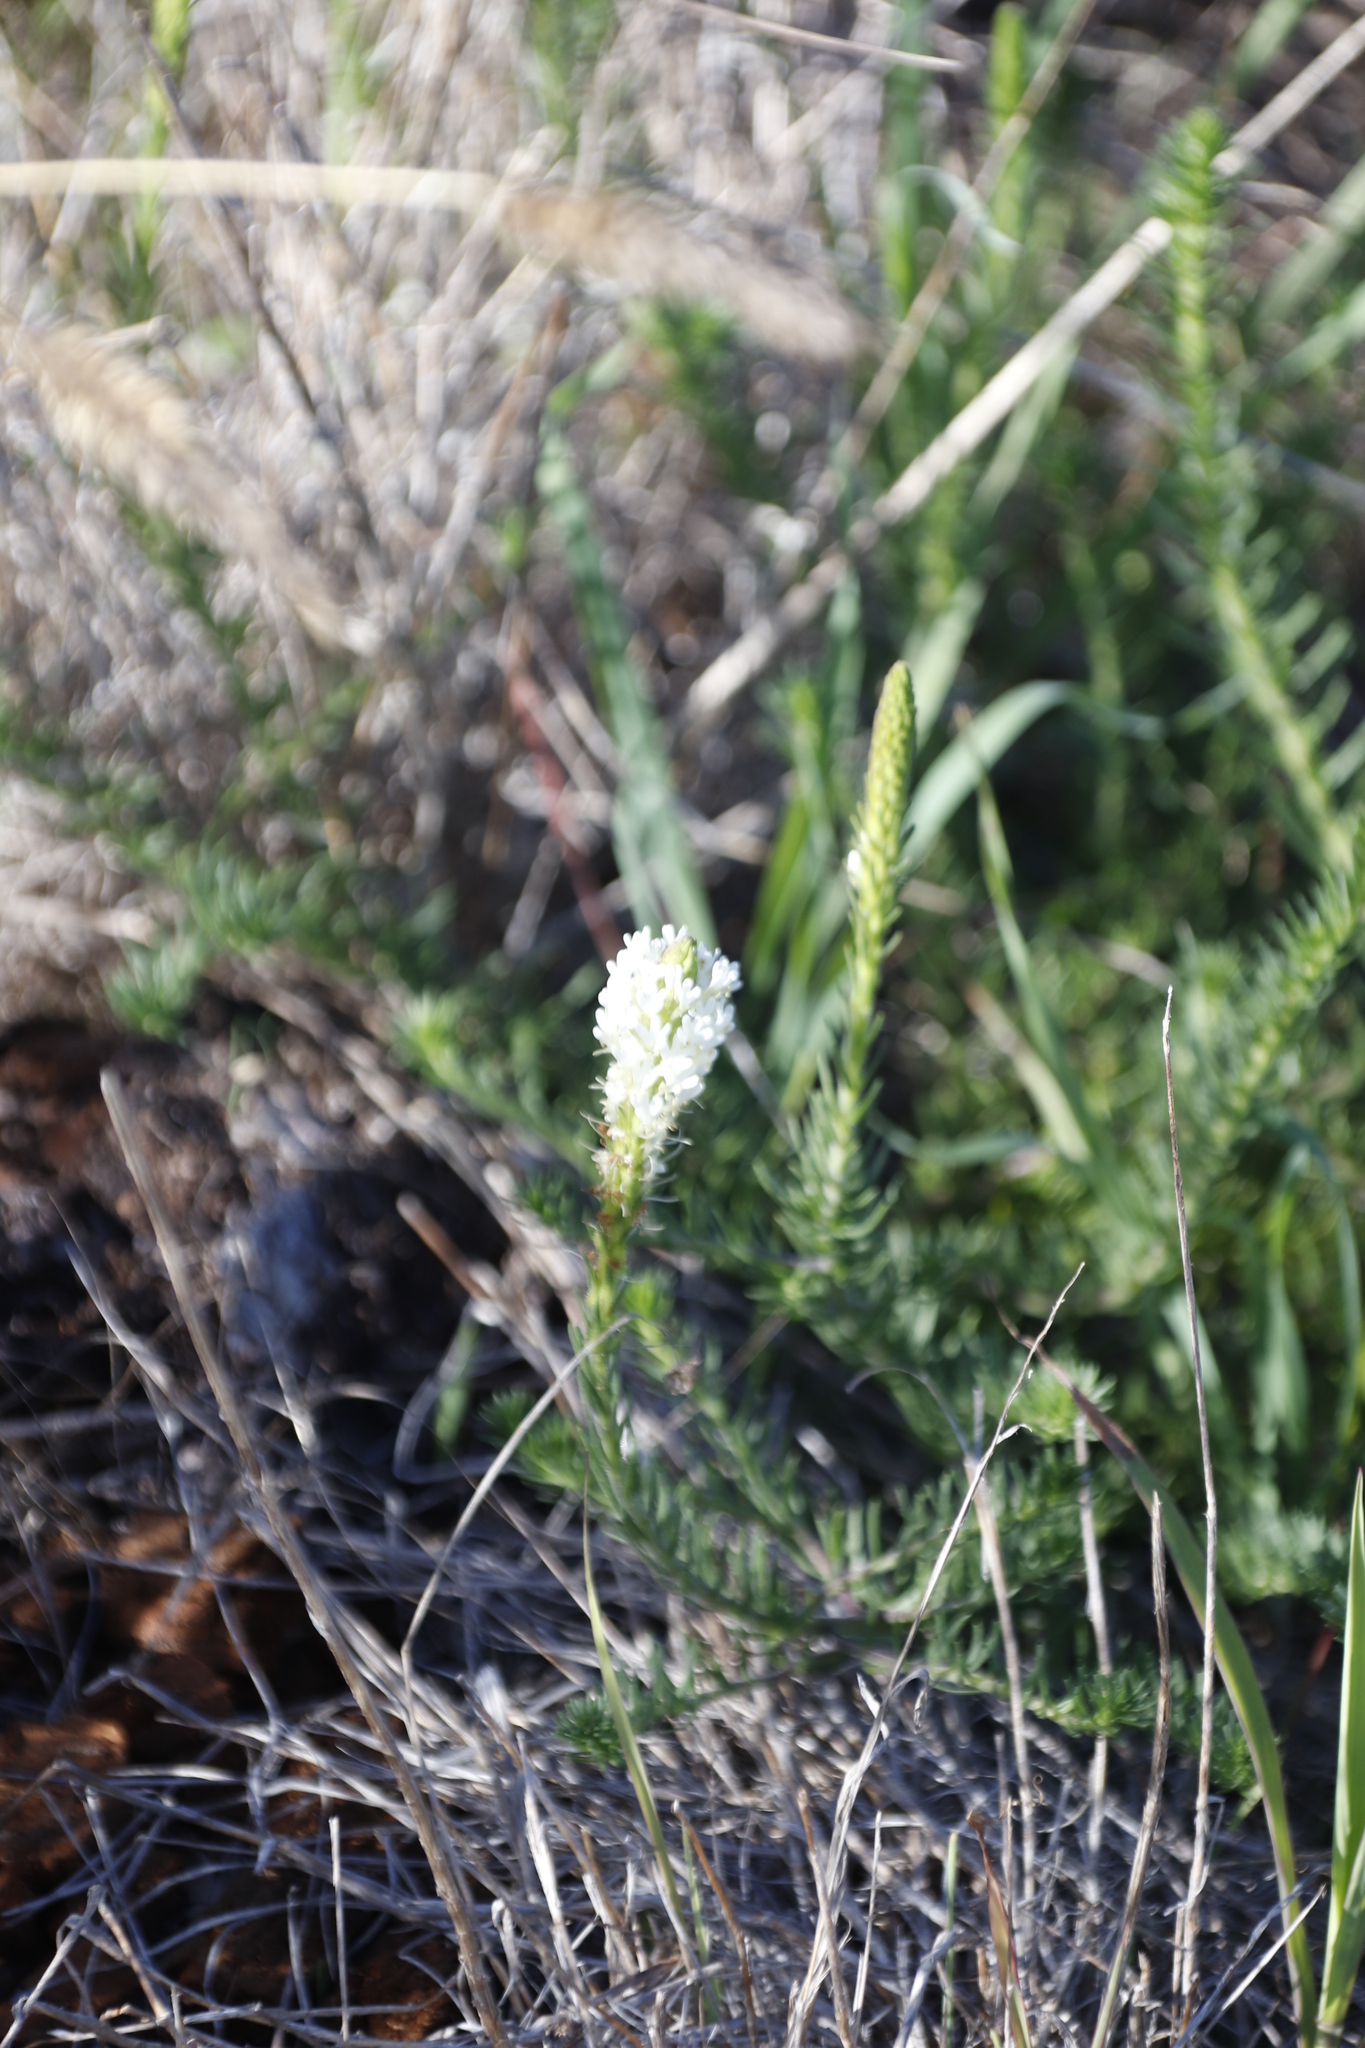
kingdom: Plantae
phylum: Tracheophyta
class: Magnoliopsida
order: Lamiales
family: Scrophulariaceae
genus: Dischisma
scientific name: Dischisma ciliatum
